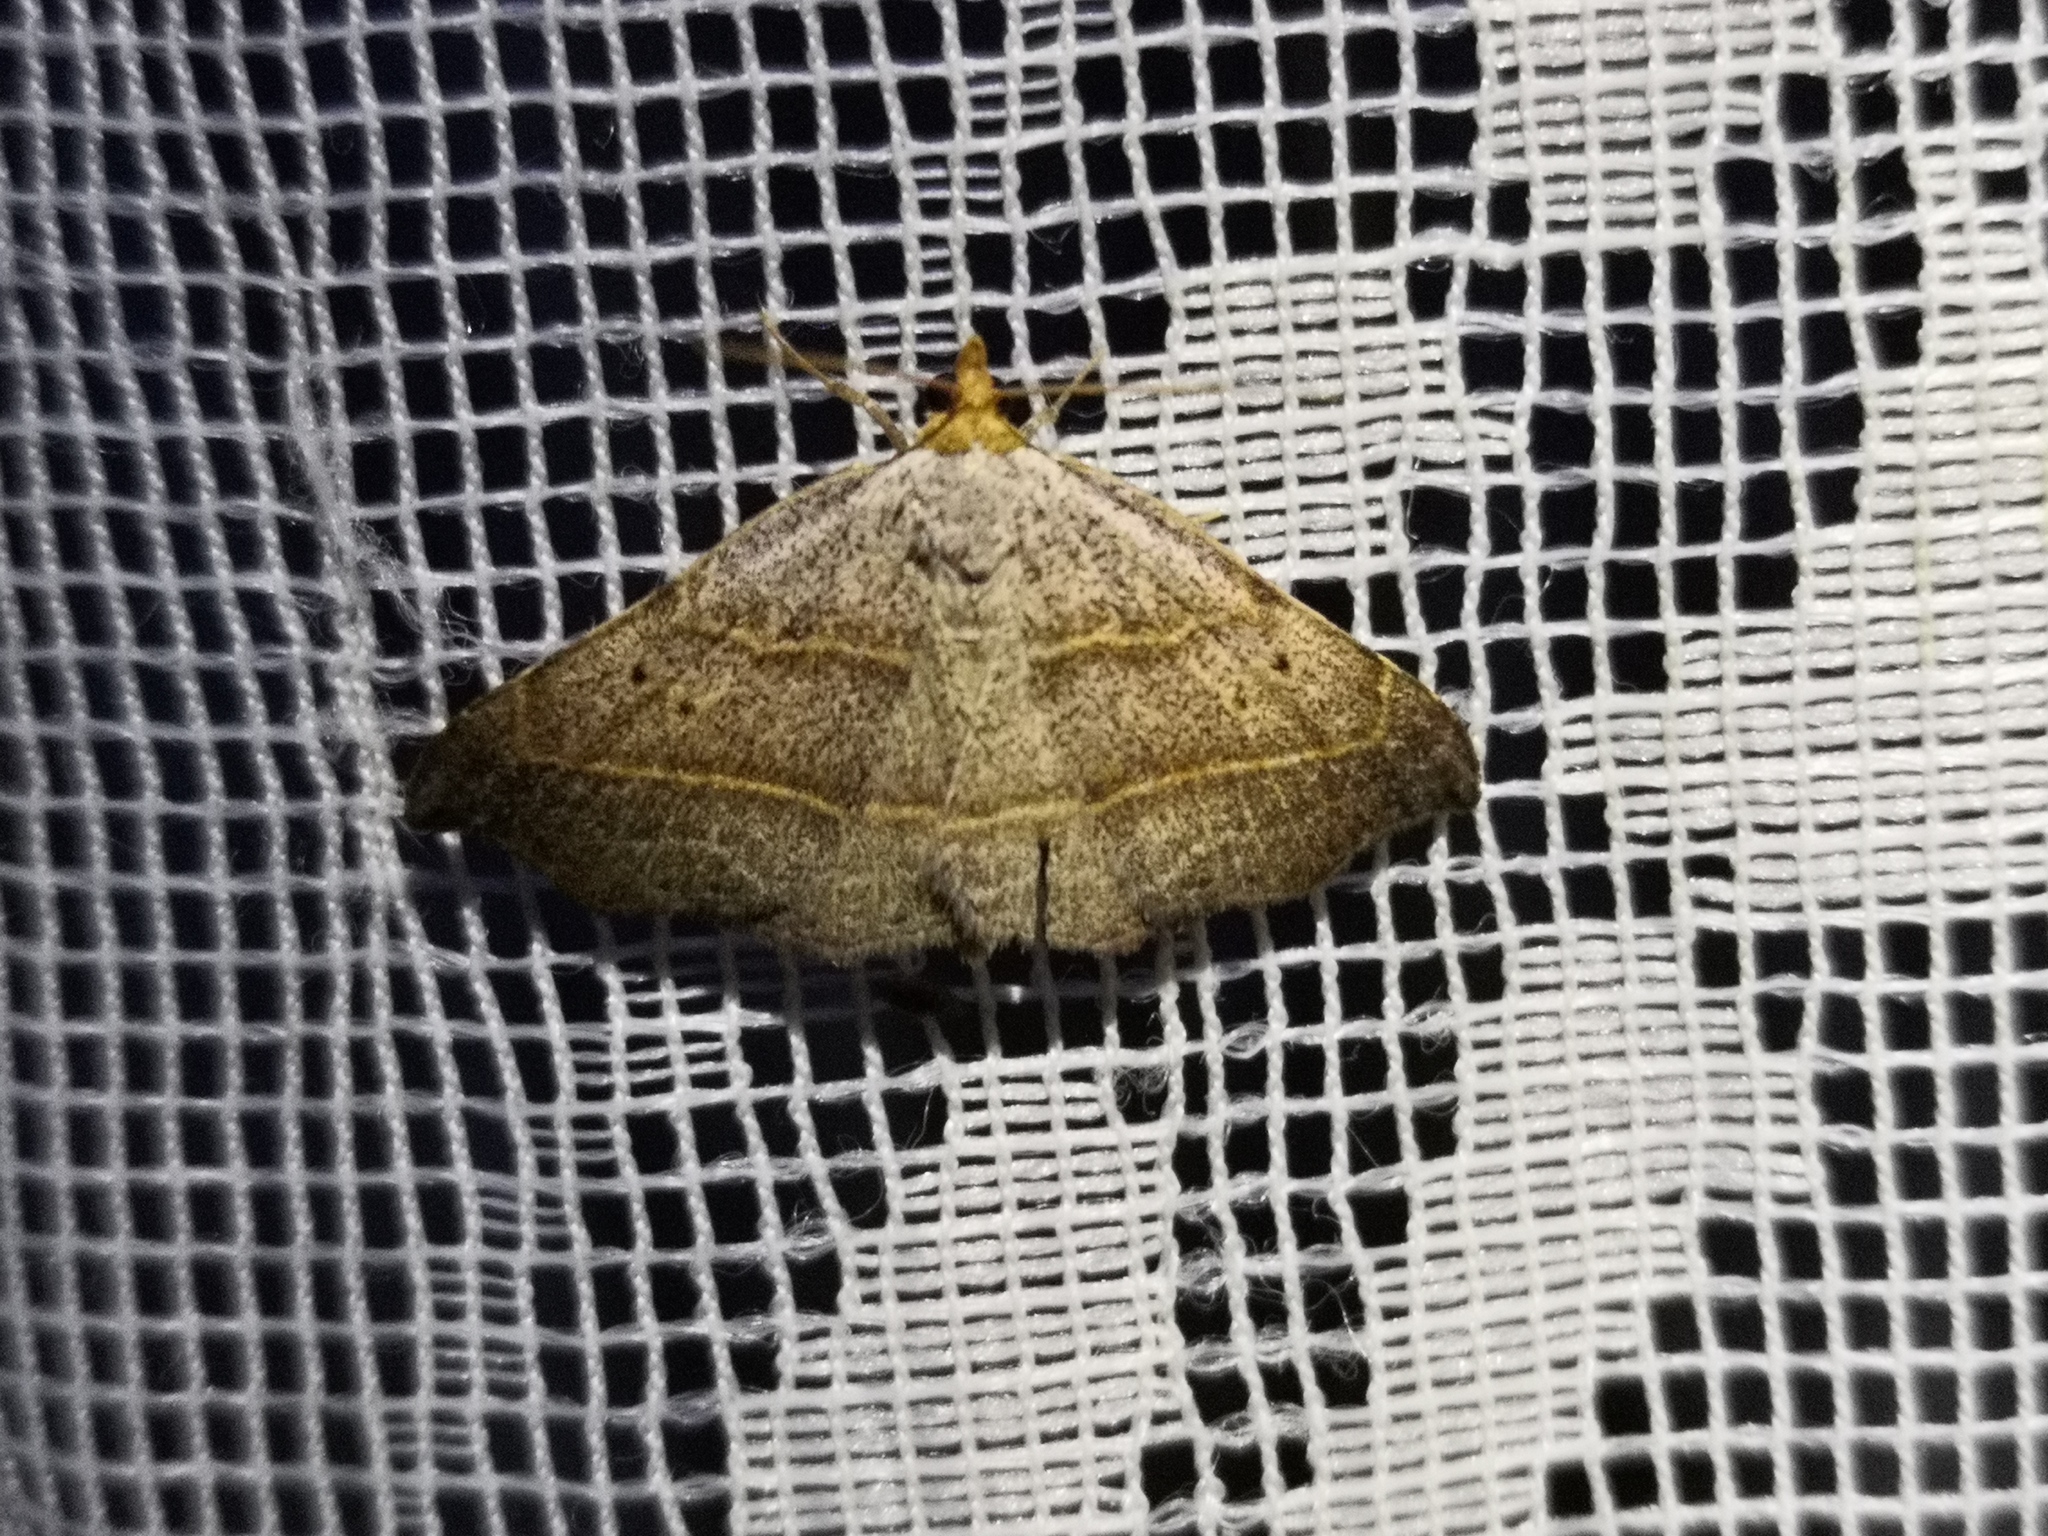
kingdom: Animalia
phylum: Arthropoda
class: Insecta
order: Lepidoptera
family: Erebidae
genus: Laspeyria
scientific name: Laspeyria flexula
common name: Beautiful hook-tip
